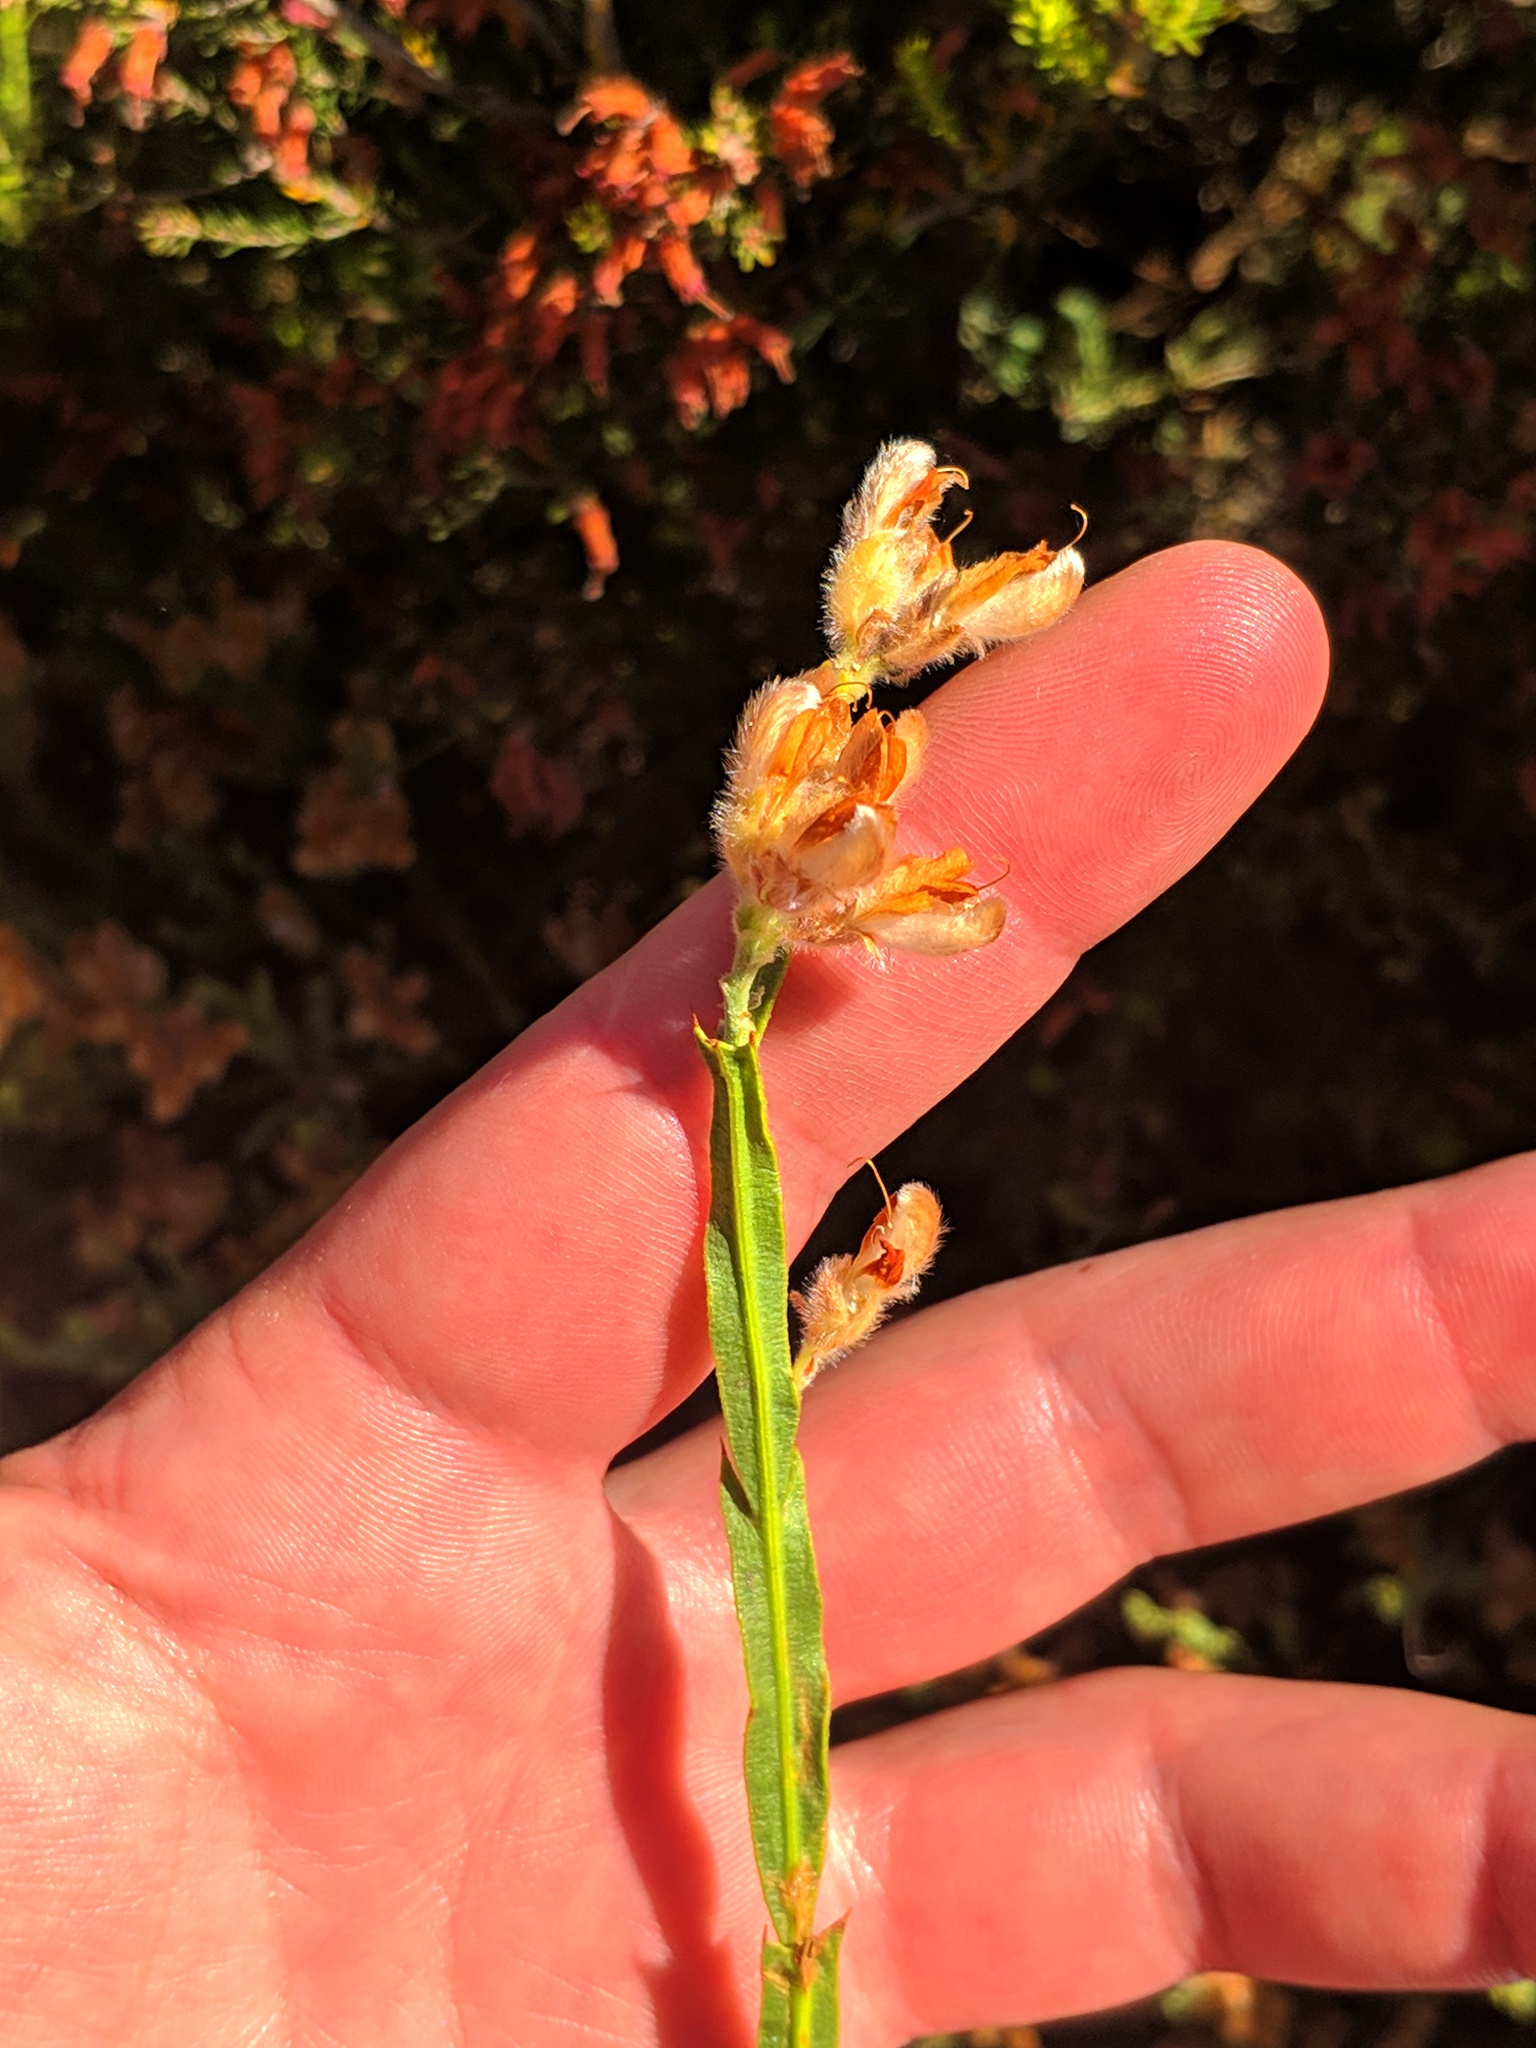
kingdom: Plantae
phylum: Tracheophyta
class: Magnoliopsida
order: Fabales
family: Fabaceae
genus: Genista
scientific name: Genista tridentata
